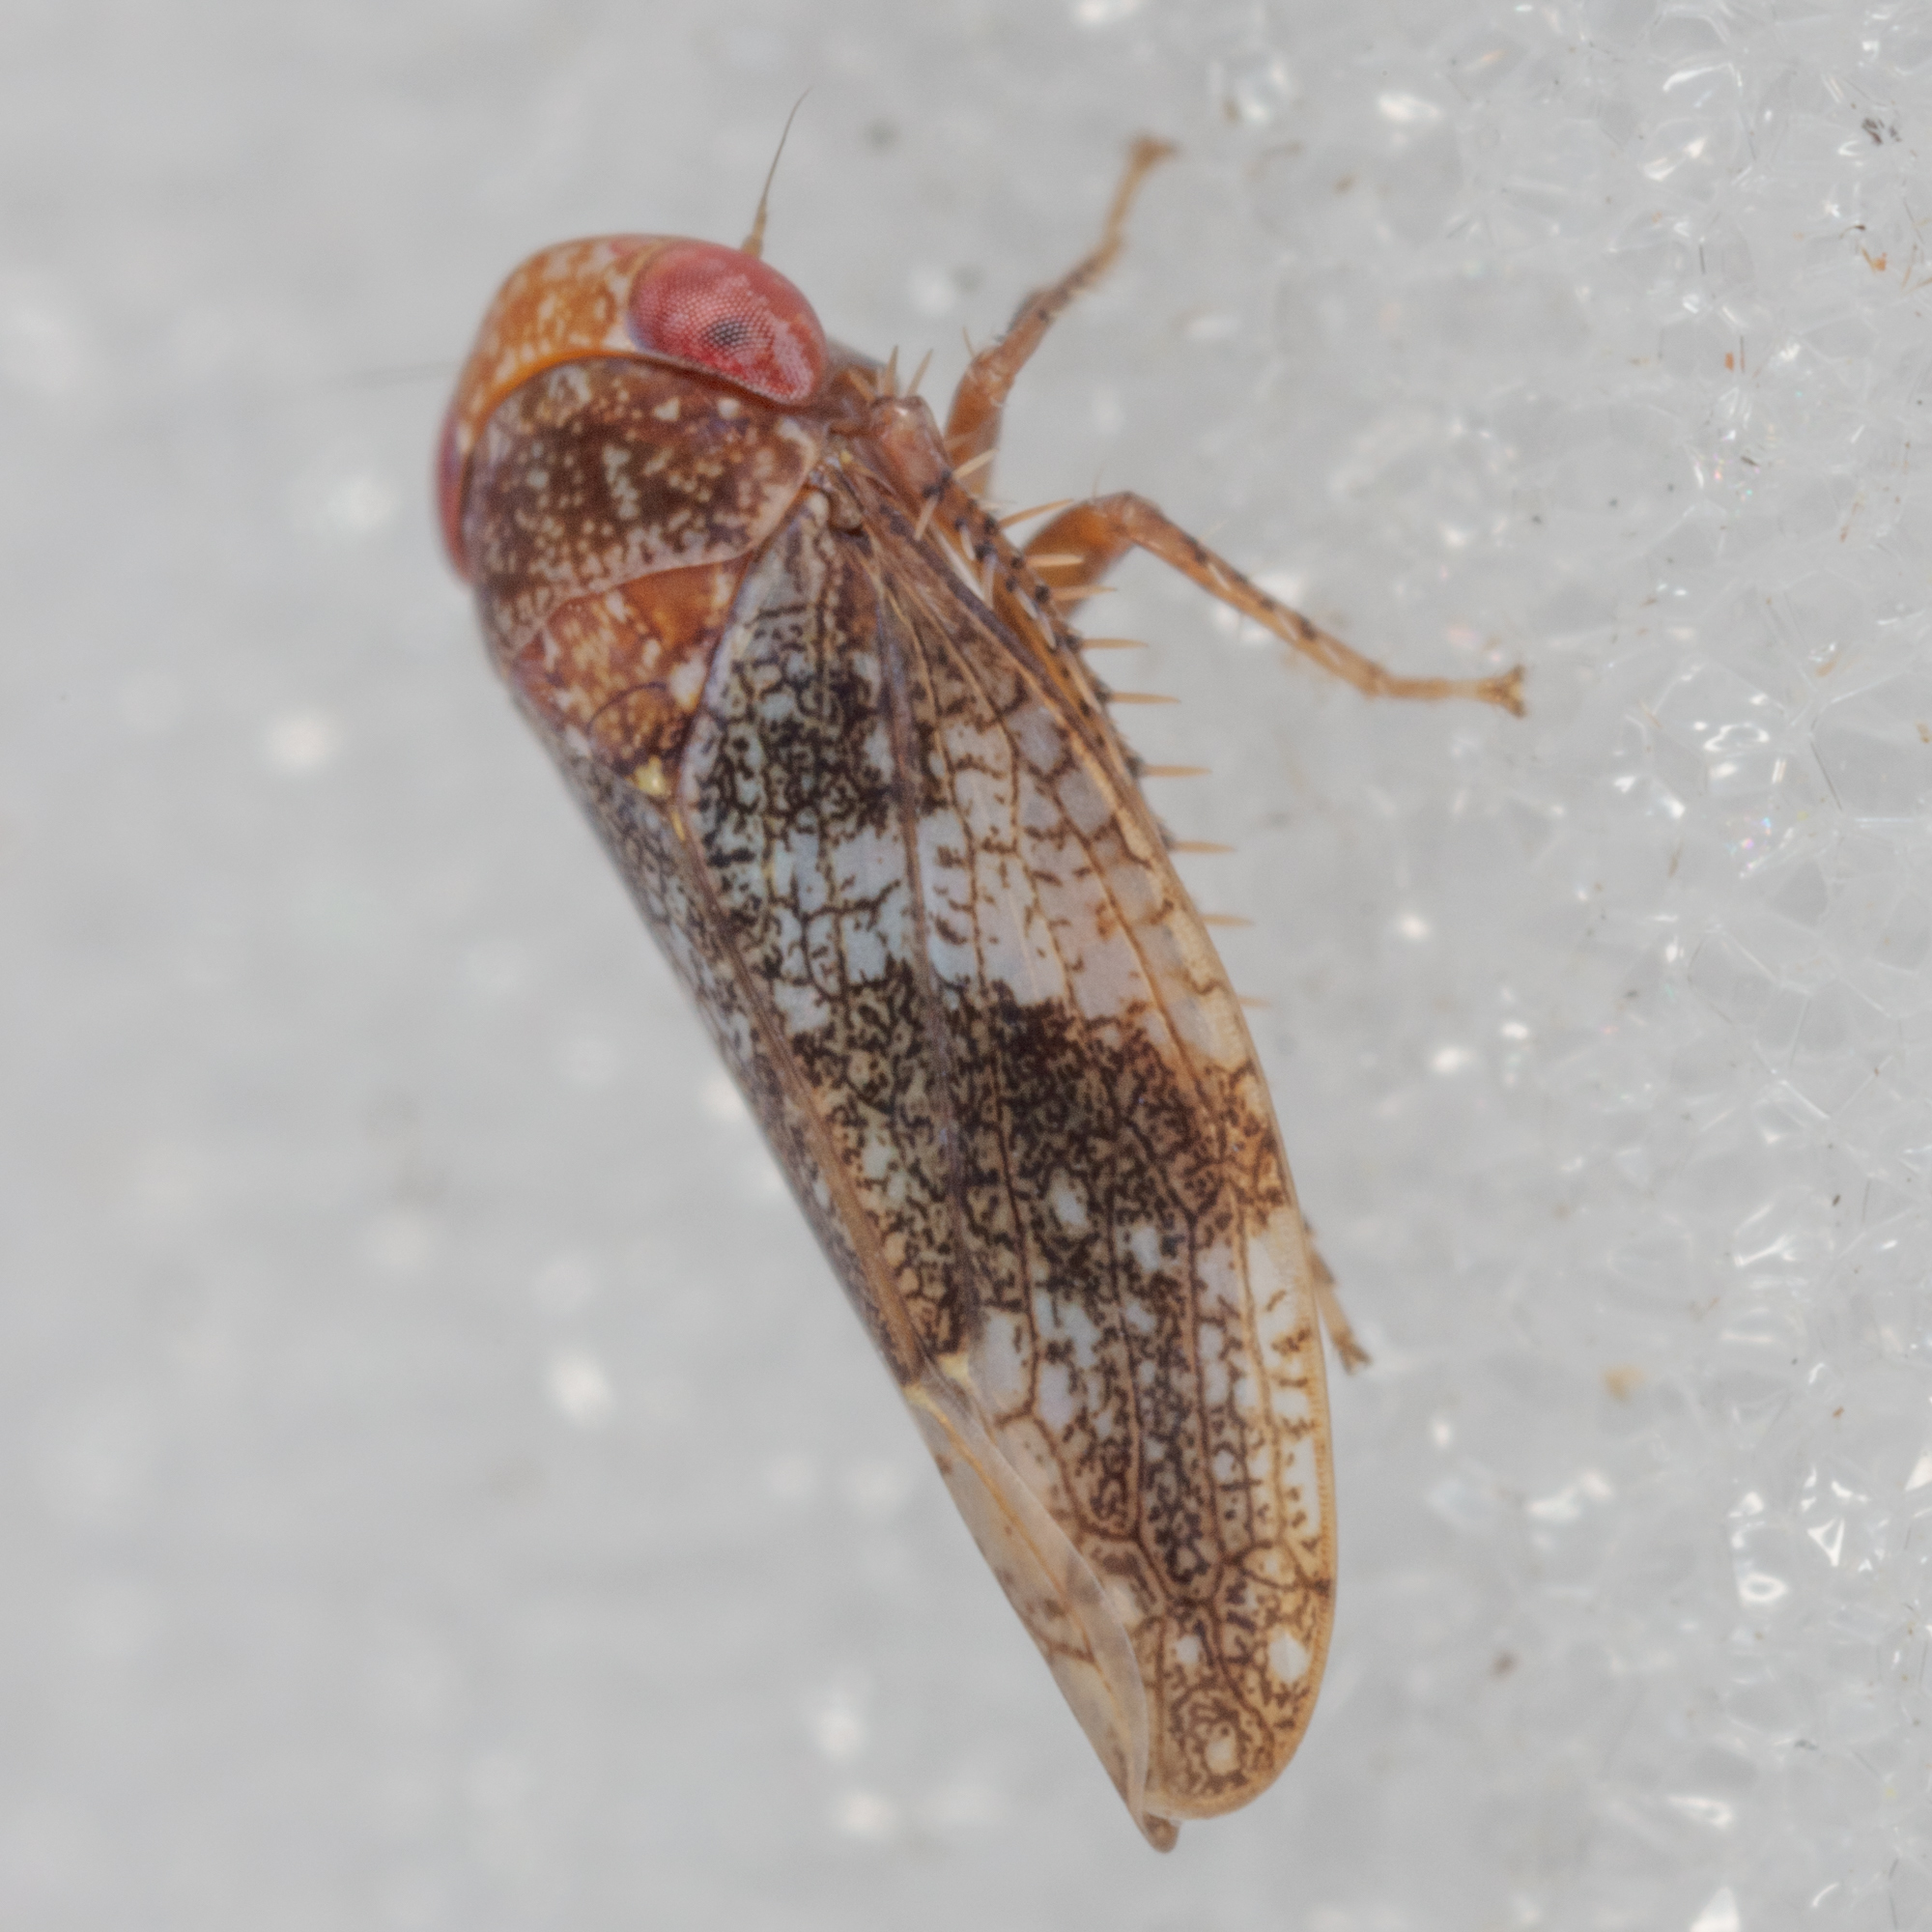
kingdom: Animalia
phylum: Arthropoda
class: Insecta
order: Hemiptera
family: Cicadellidae
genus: Norvellina
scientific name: Norvellina helenae
